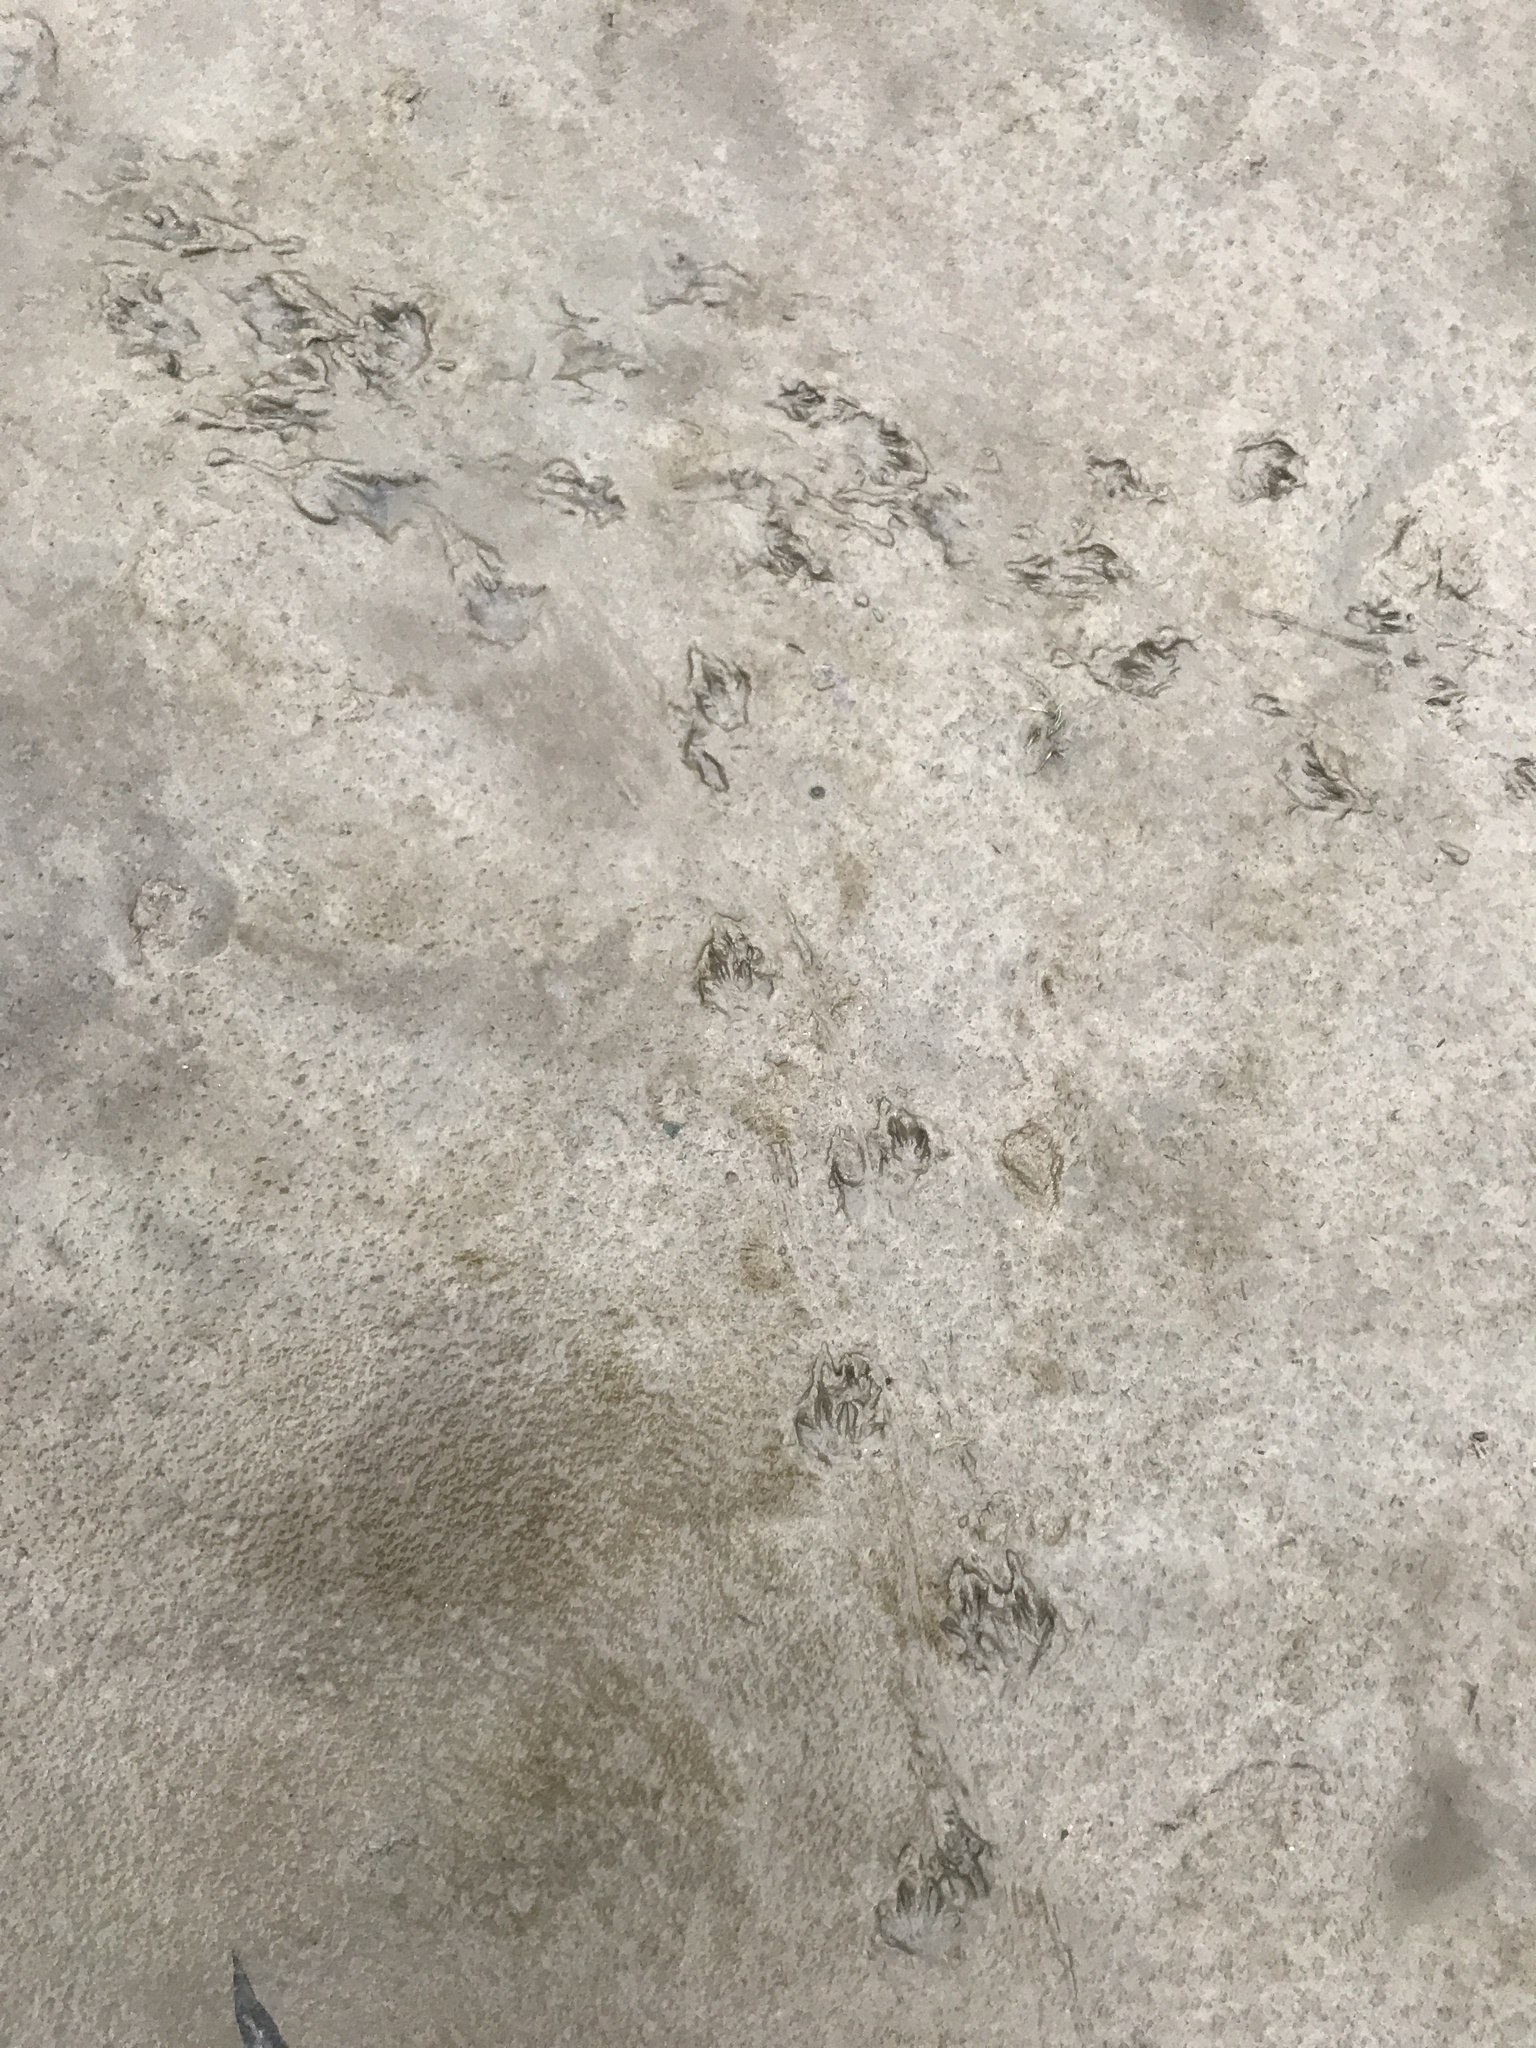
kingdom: Animalia
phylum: Chordata
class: Mammalia
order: Rodentia
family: Cricetidae
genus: Ondatra
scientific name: Ondatra zibethicus
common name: Muskrat
